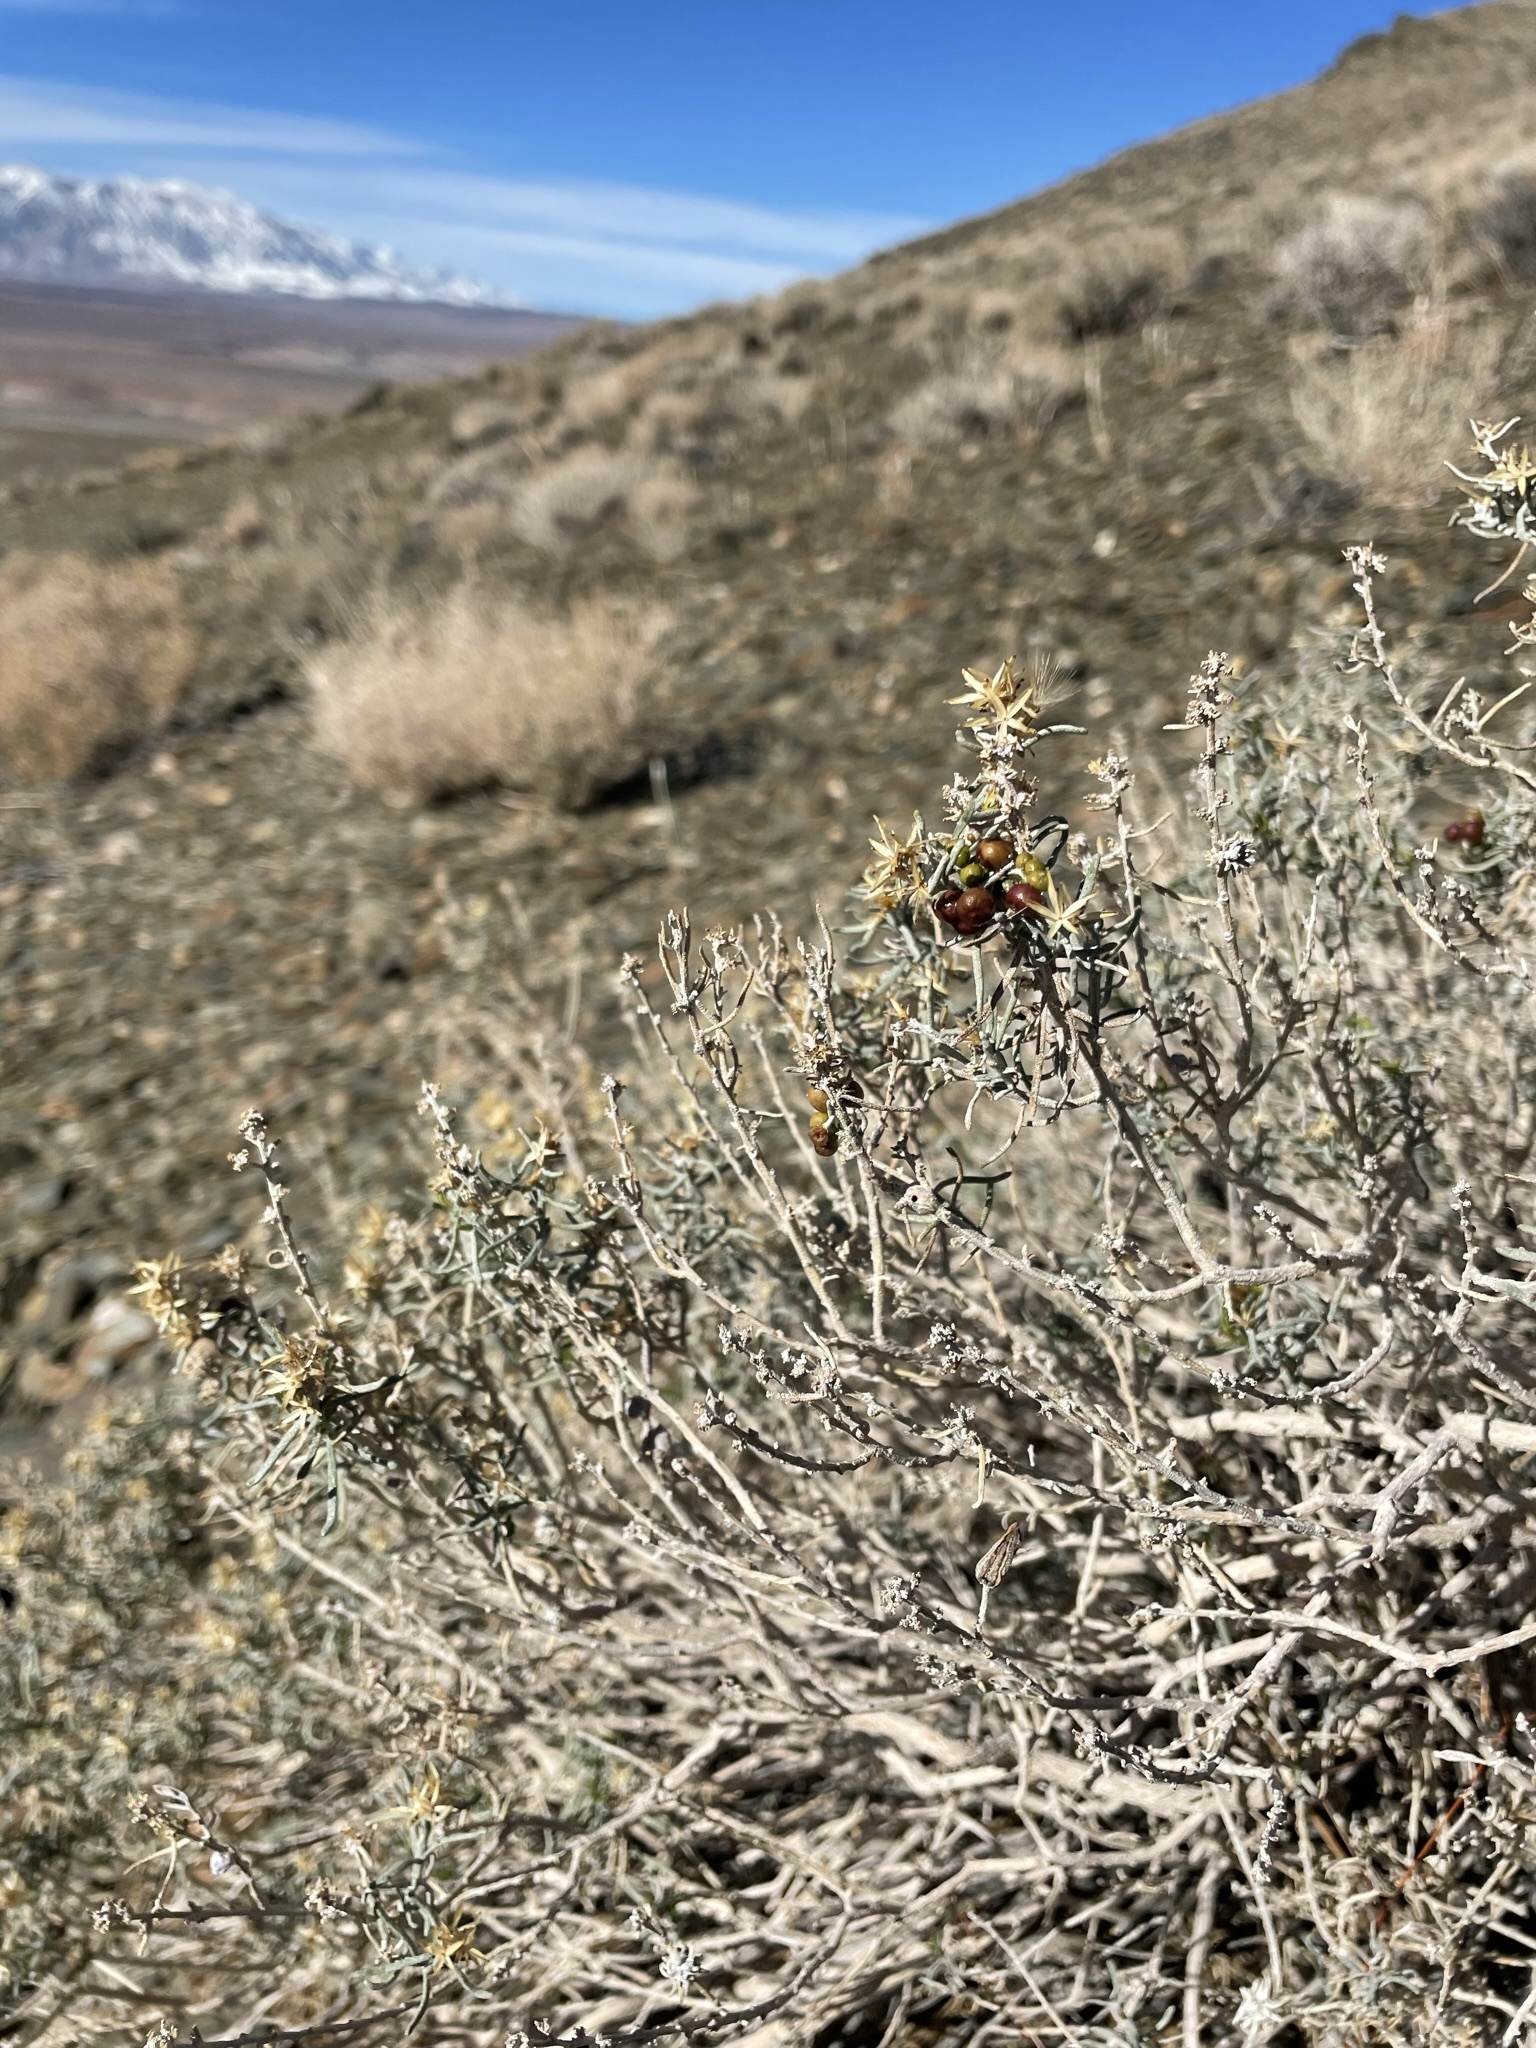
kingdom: Plantae
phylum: Tracheophyta
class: Magnoliopsida
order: Asterales
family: Asteraceae
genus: Ericameria
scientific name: Ericameria teretifolia
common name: Round-leaf rabbitbrush
